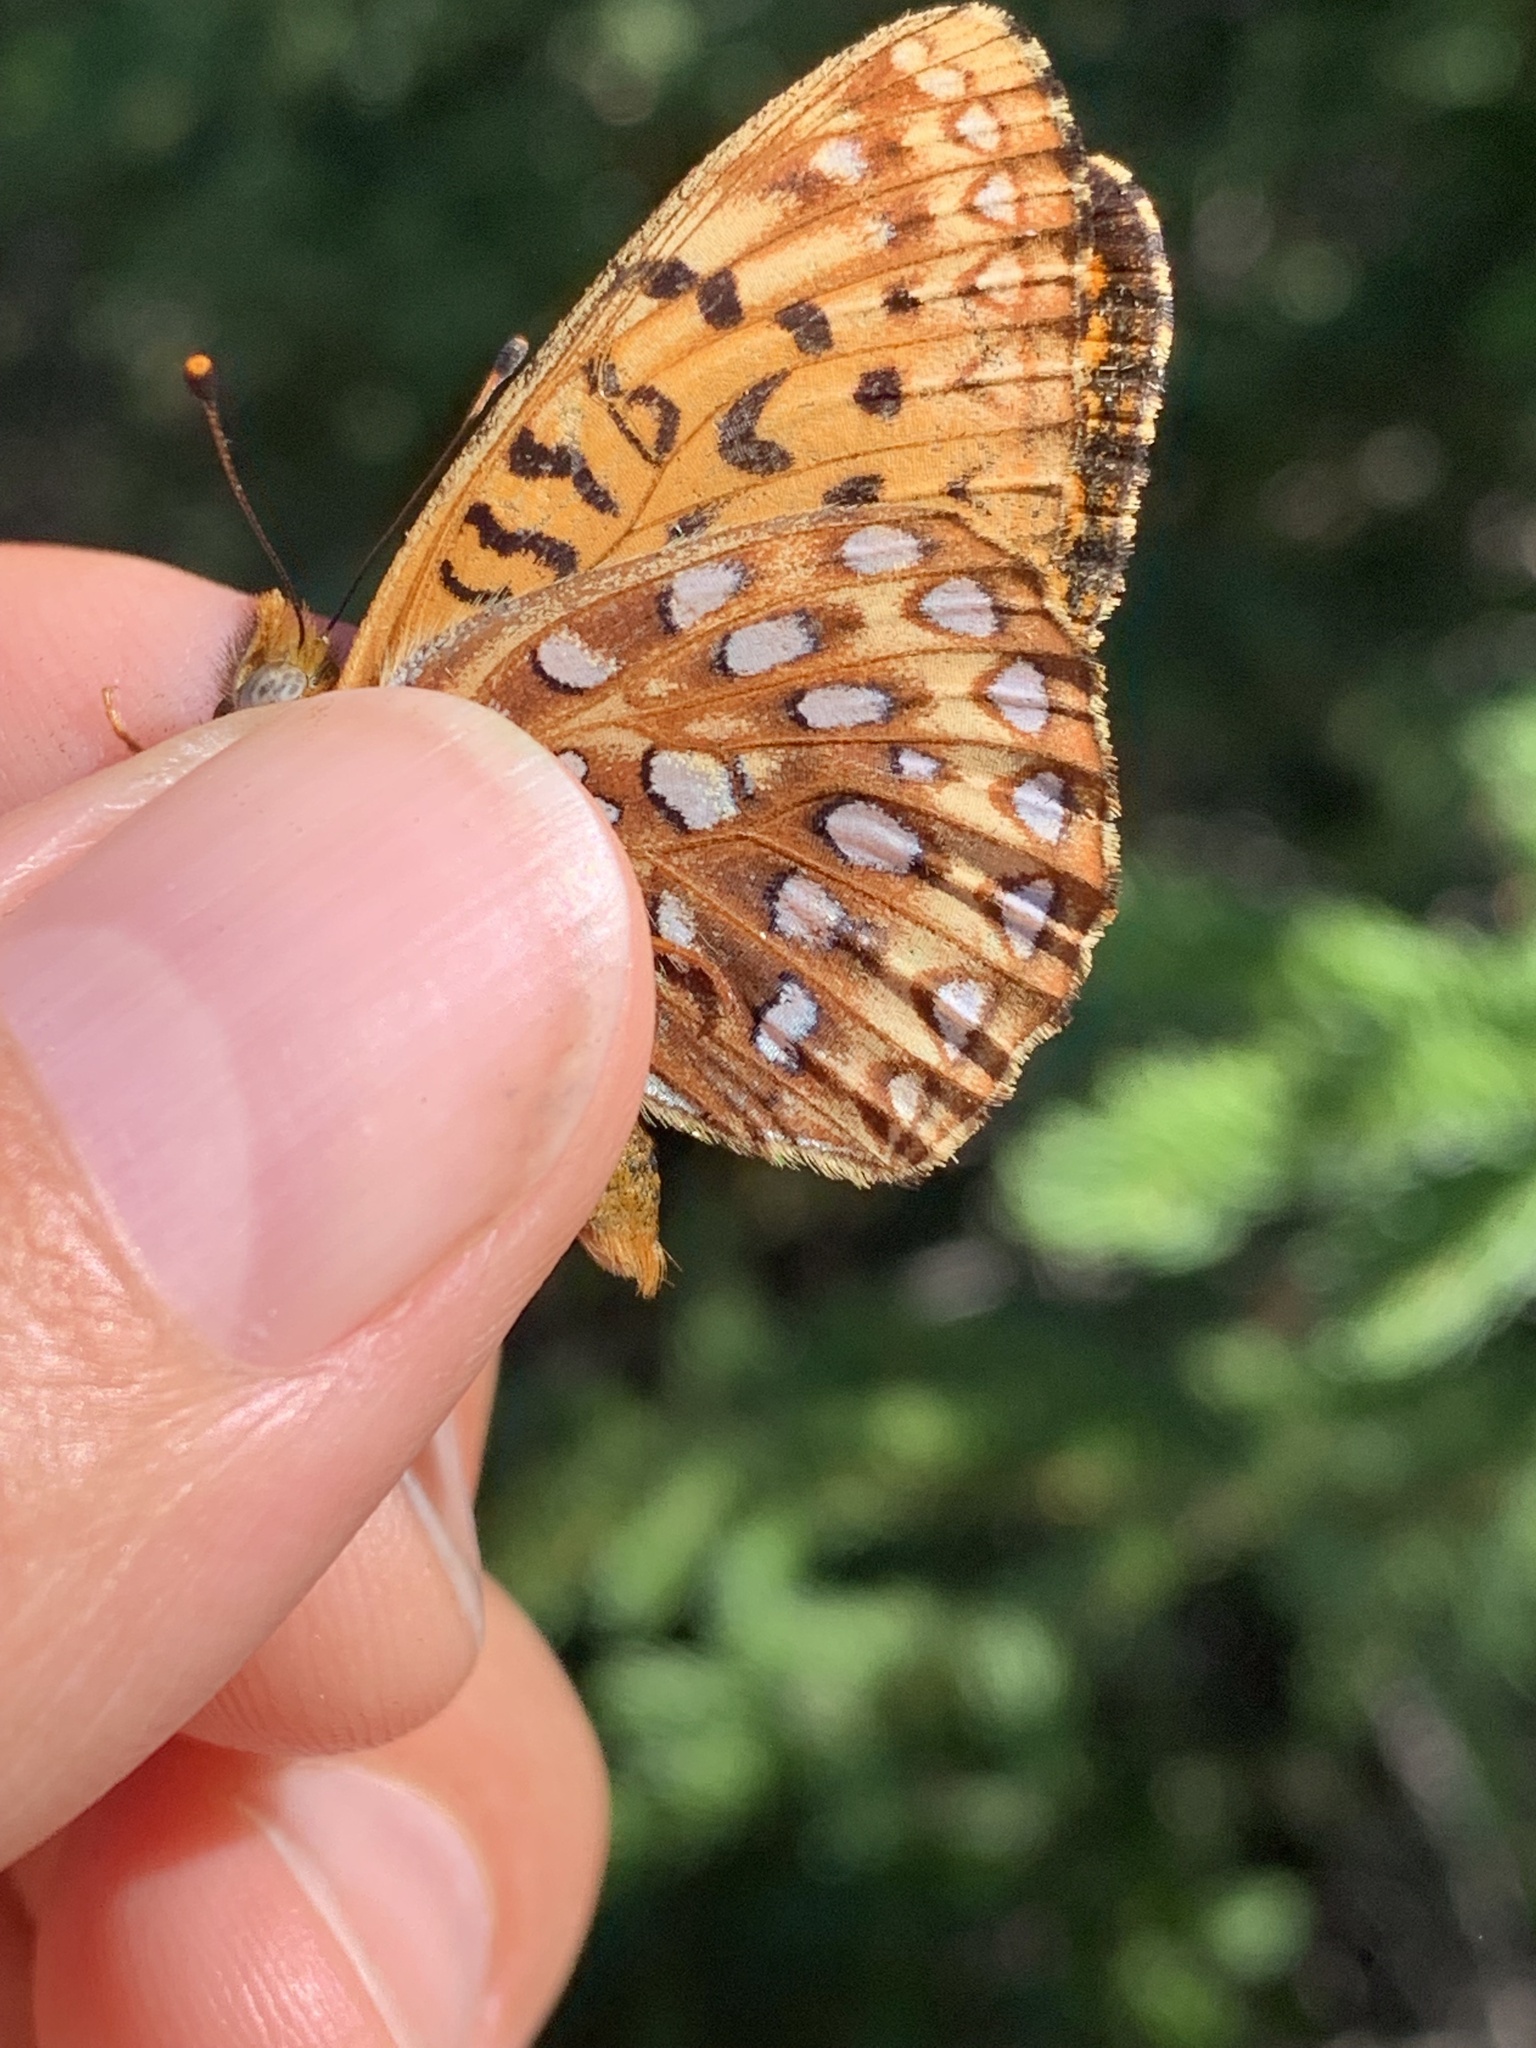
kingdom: Animalia
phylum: Arthropoda
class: Insecta
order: Lepidoptera
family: Nymphalidae
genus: Speyeria
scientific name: Speyeria atlantis
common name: Atlantis fritillary
